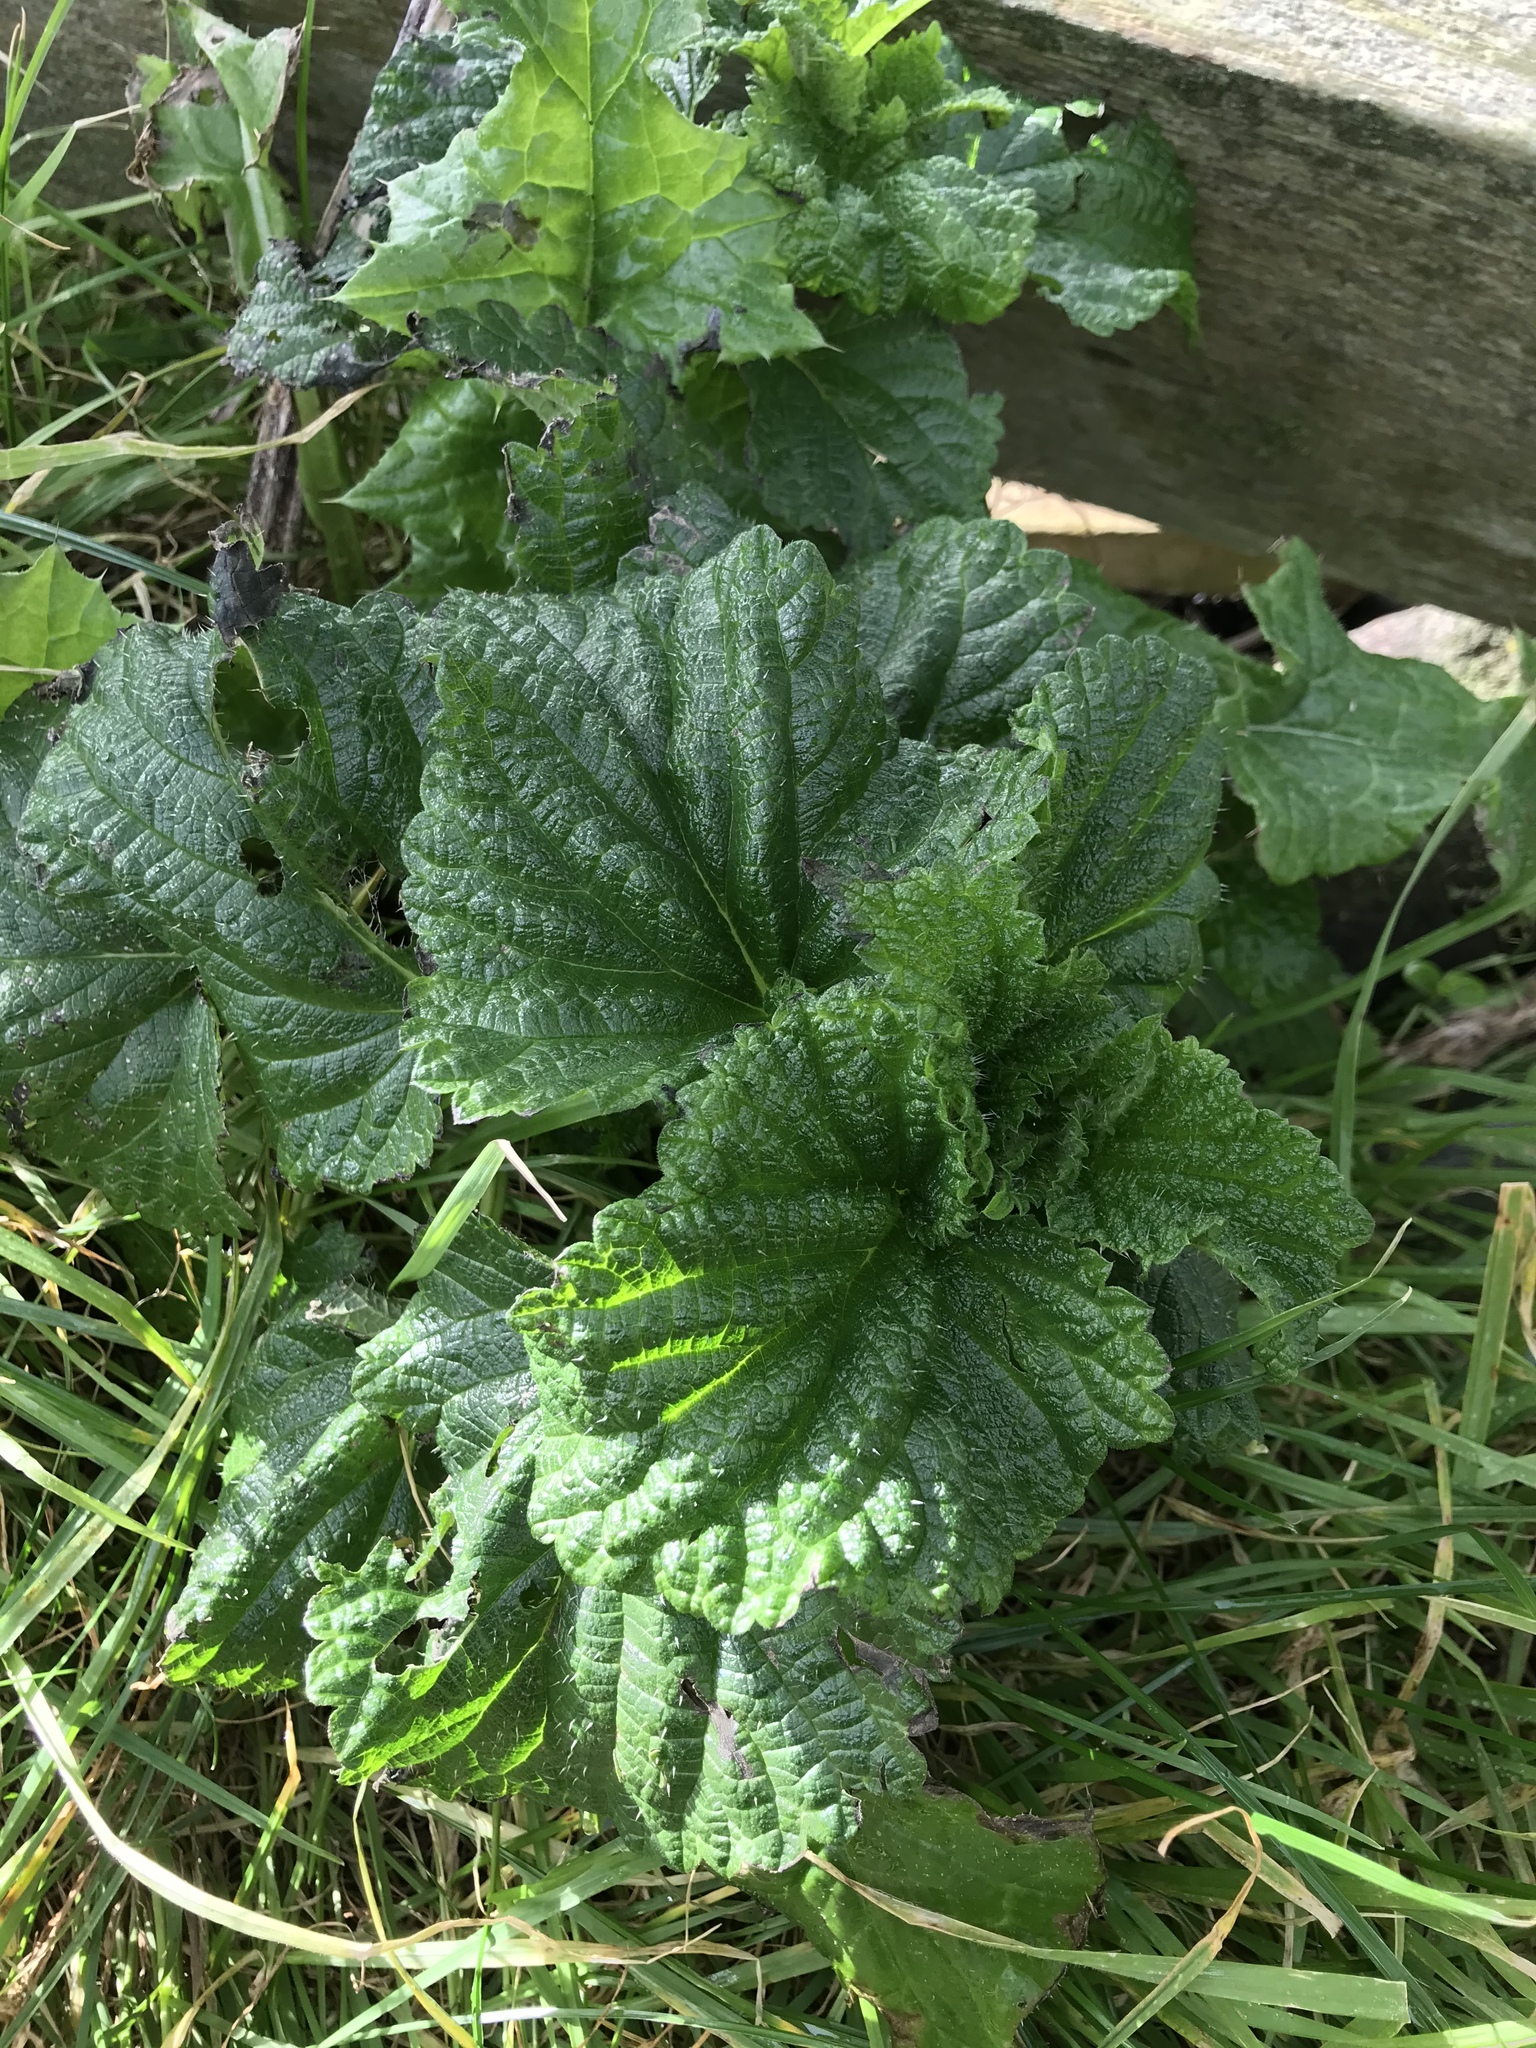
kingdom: Plantae
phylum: Tracheophyta
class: Magnoliopsida
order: Rosales
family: Urticaceae
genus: Urtica
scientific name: Urtica australis
